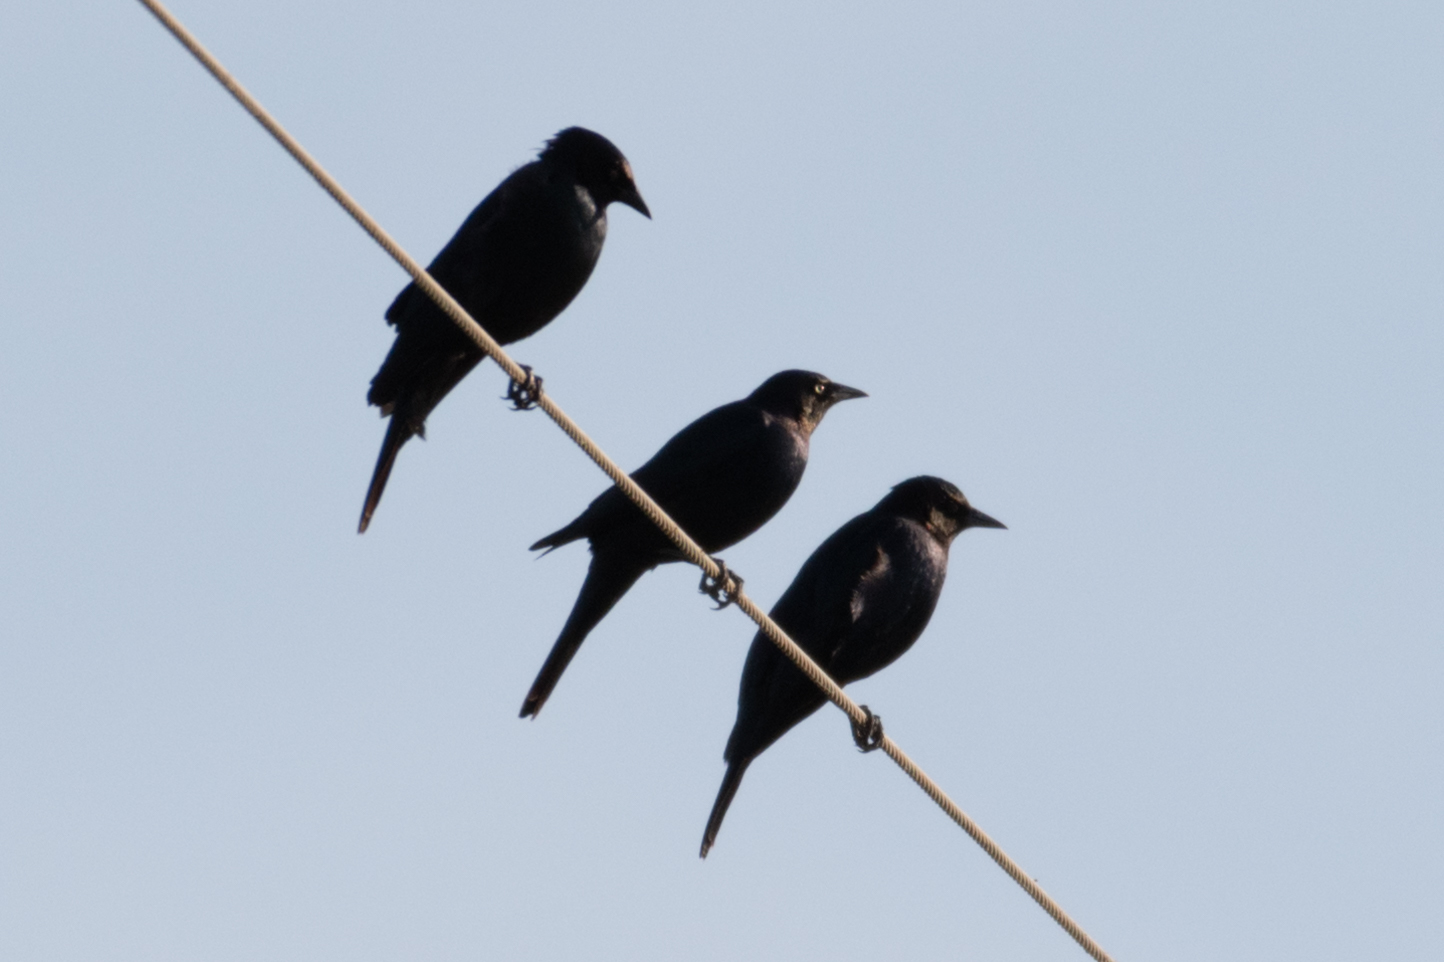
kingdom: Animalia
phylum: Chordata
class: Aves
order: Passeriformes
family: Icteridae
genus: Euphagus
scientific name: Euphagus cyanocephalus
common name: Brewer's blackbird
